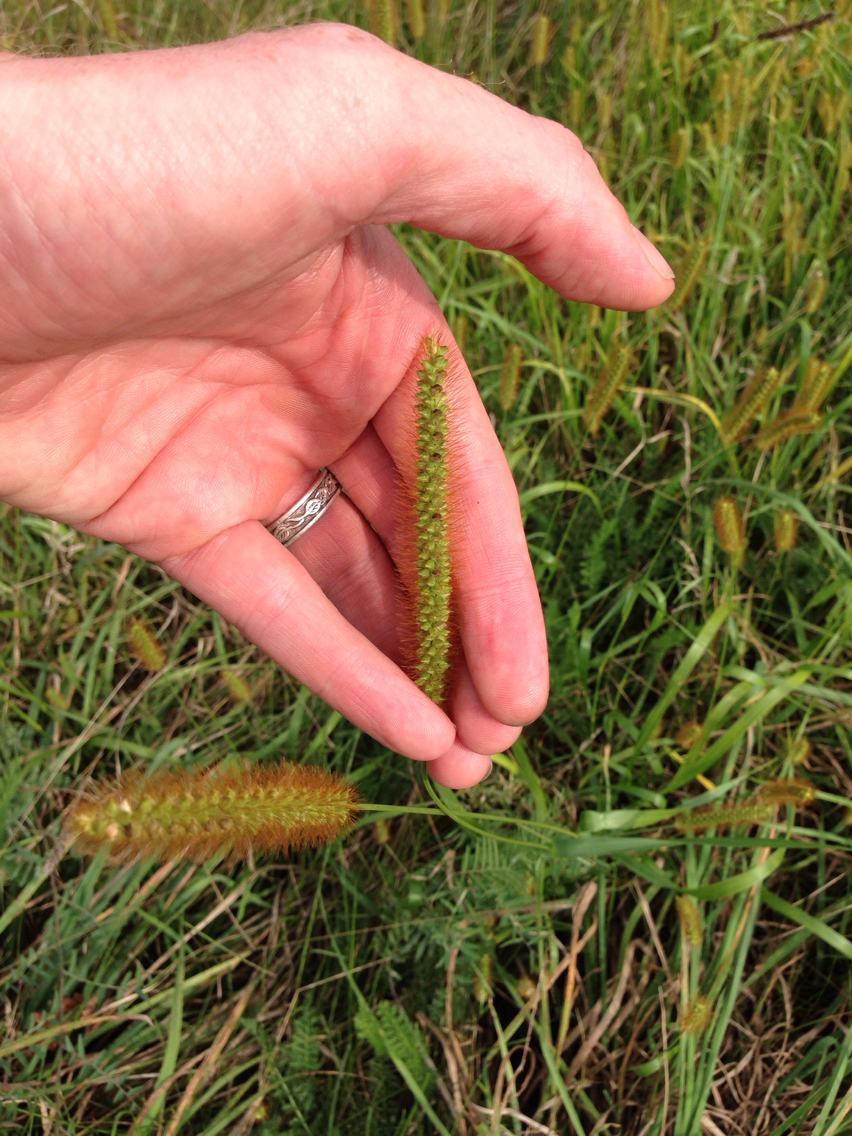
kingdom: Plantae
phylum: Tracheophyta
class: Liliopsida
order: Poales
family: Poaceae
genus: Setaria
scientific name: Setaria pumila
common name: Yellow bristle-grass
